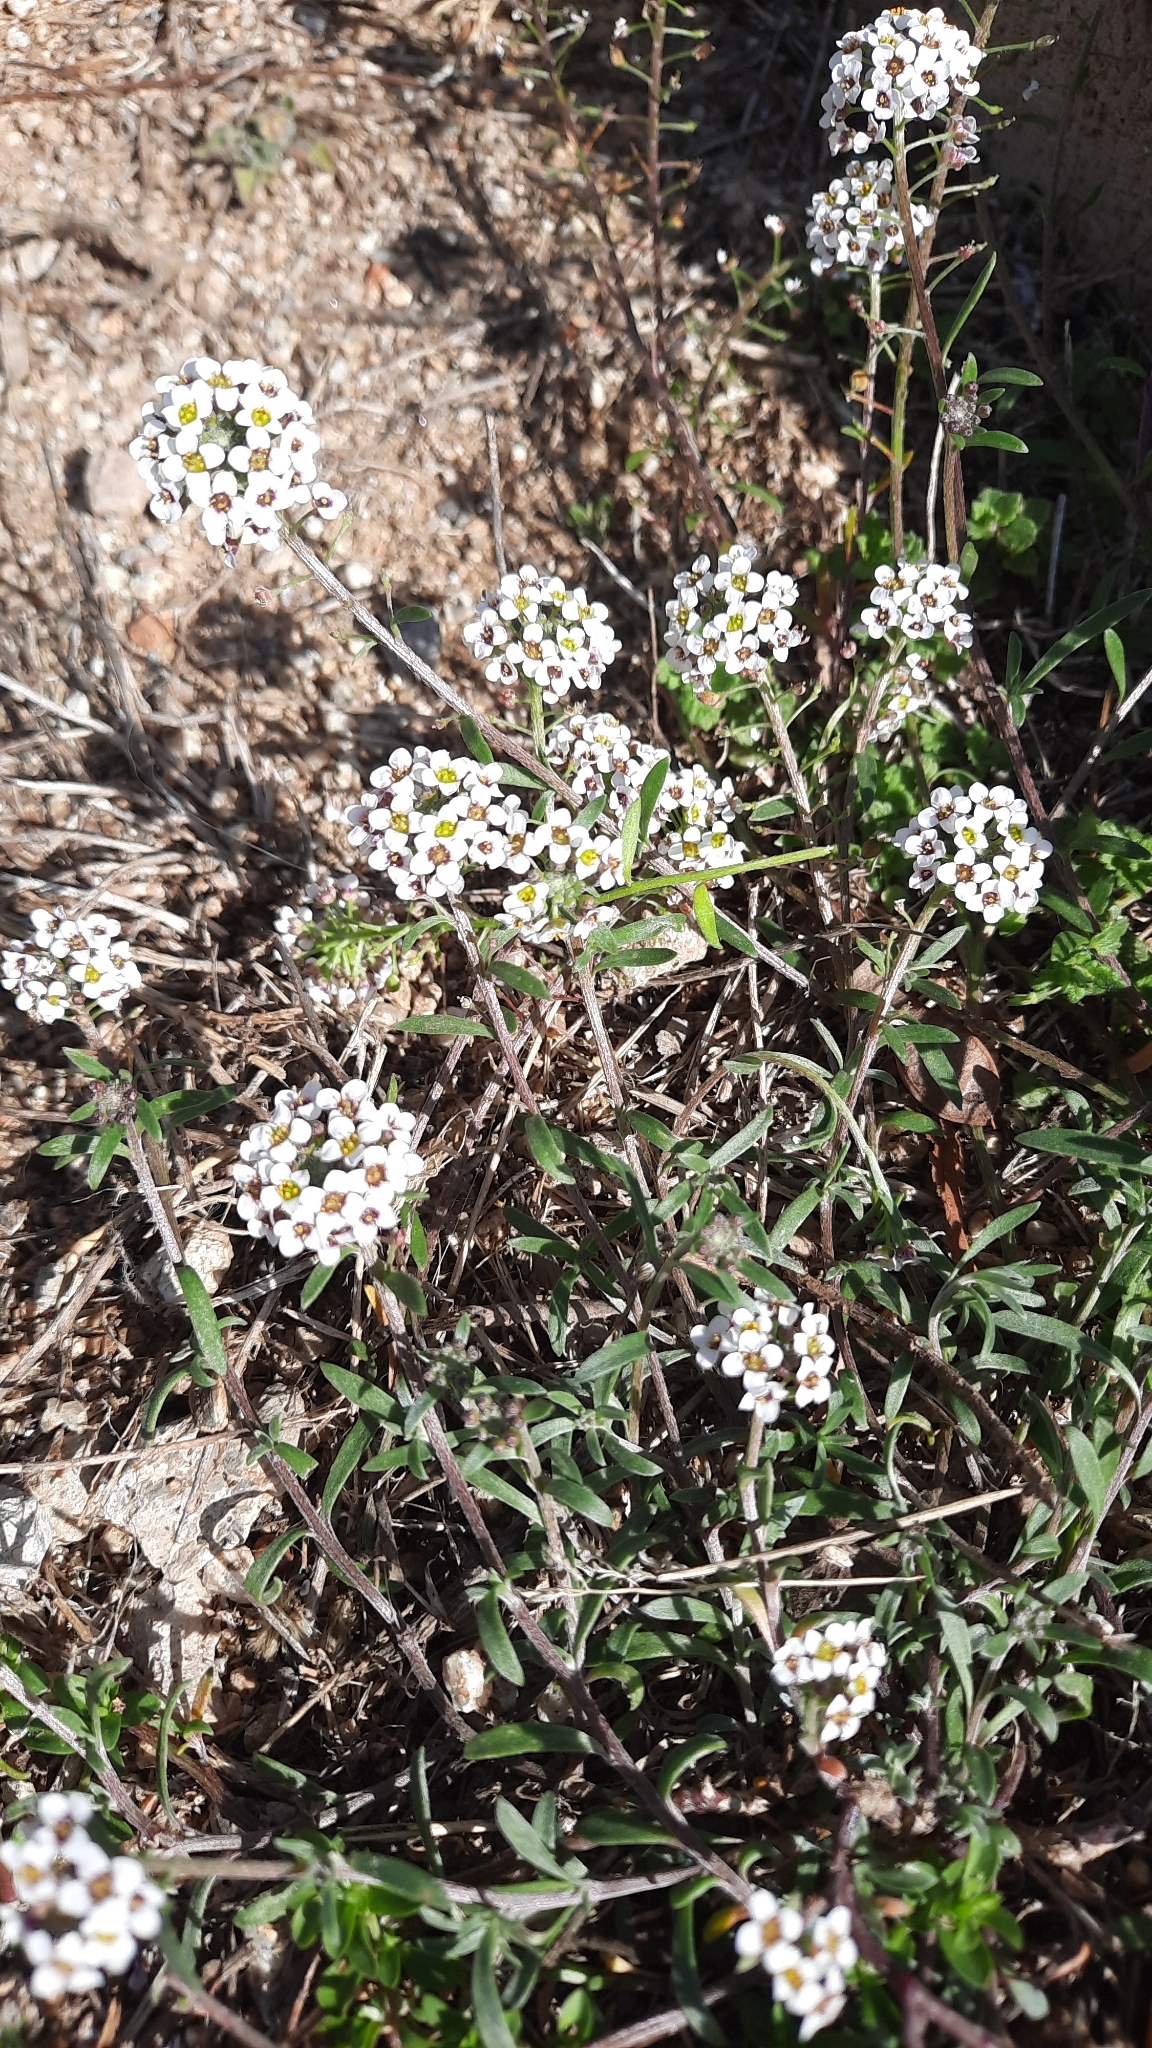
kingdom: Plantae
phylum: Tracheophyta
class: Magnoliopsida
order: Brassicales
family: Brassicaceae
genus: Lobularia
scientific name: Lobularia maritima
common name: Sweet alison
